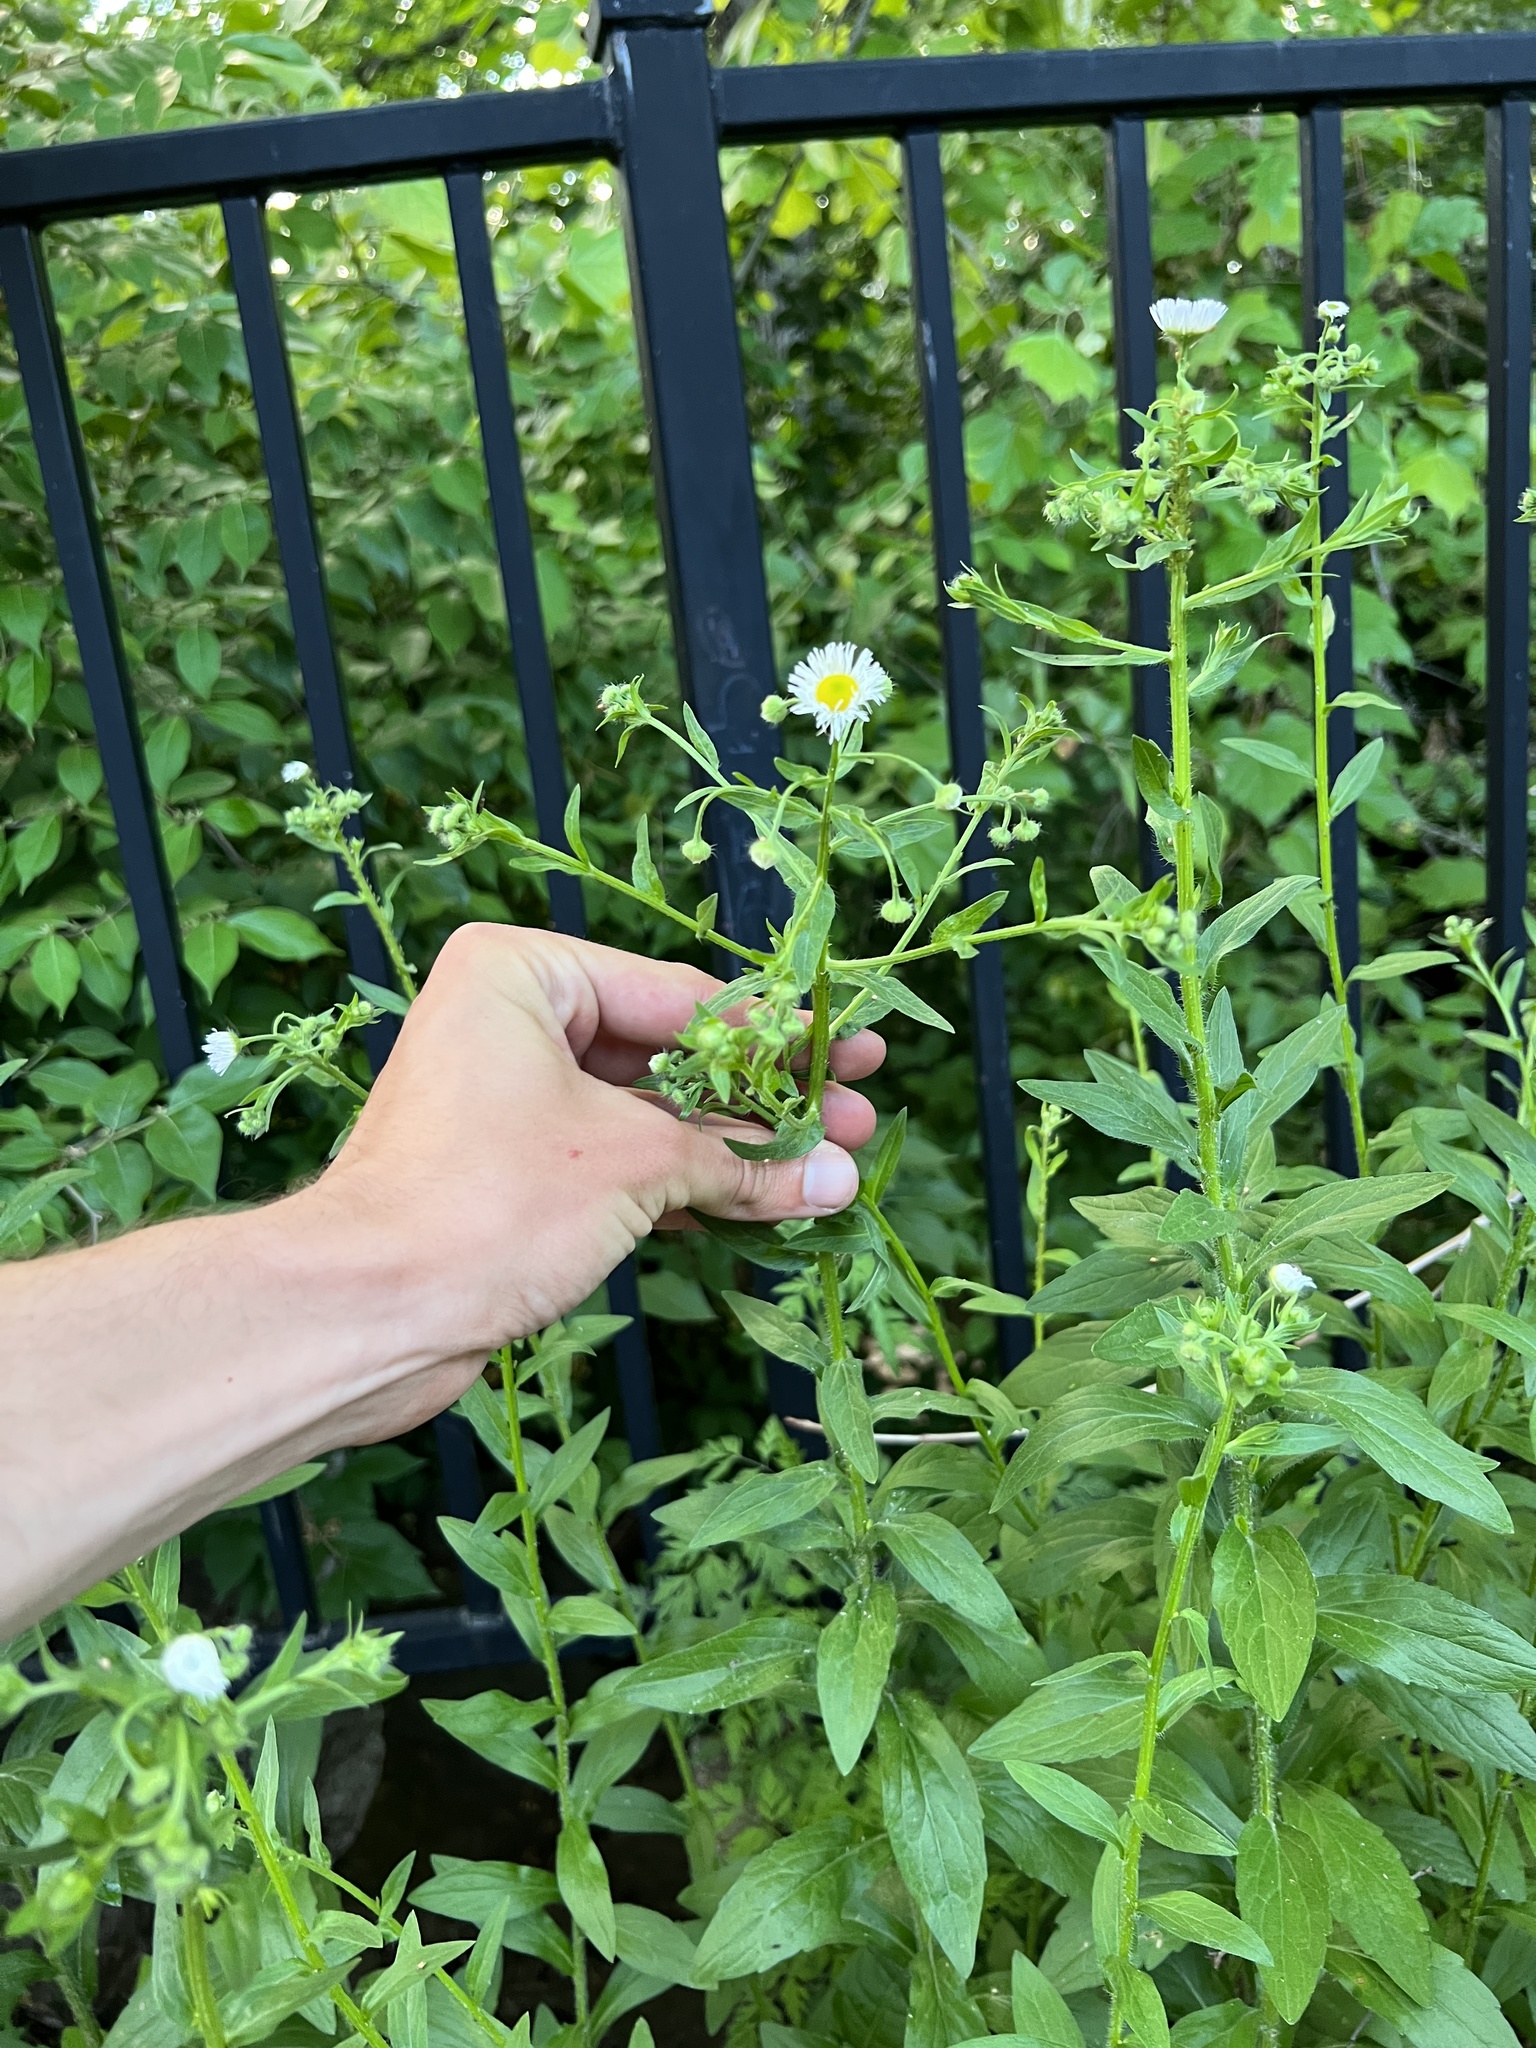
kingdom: Plantae
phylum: Tracheophyta
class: Magnoliopsida
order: Asterales
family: Asteraceae
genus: Erigeron
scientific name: Erigeron annuus
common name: Tall fleabane
